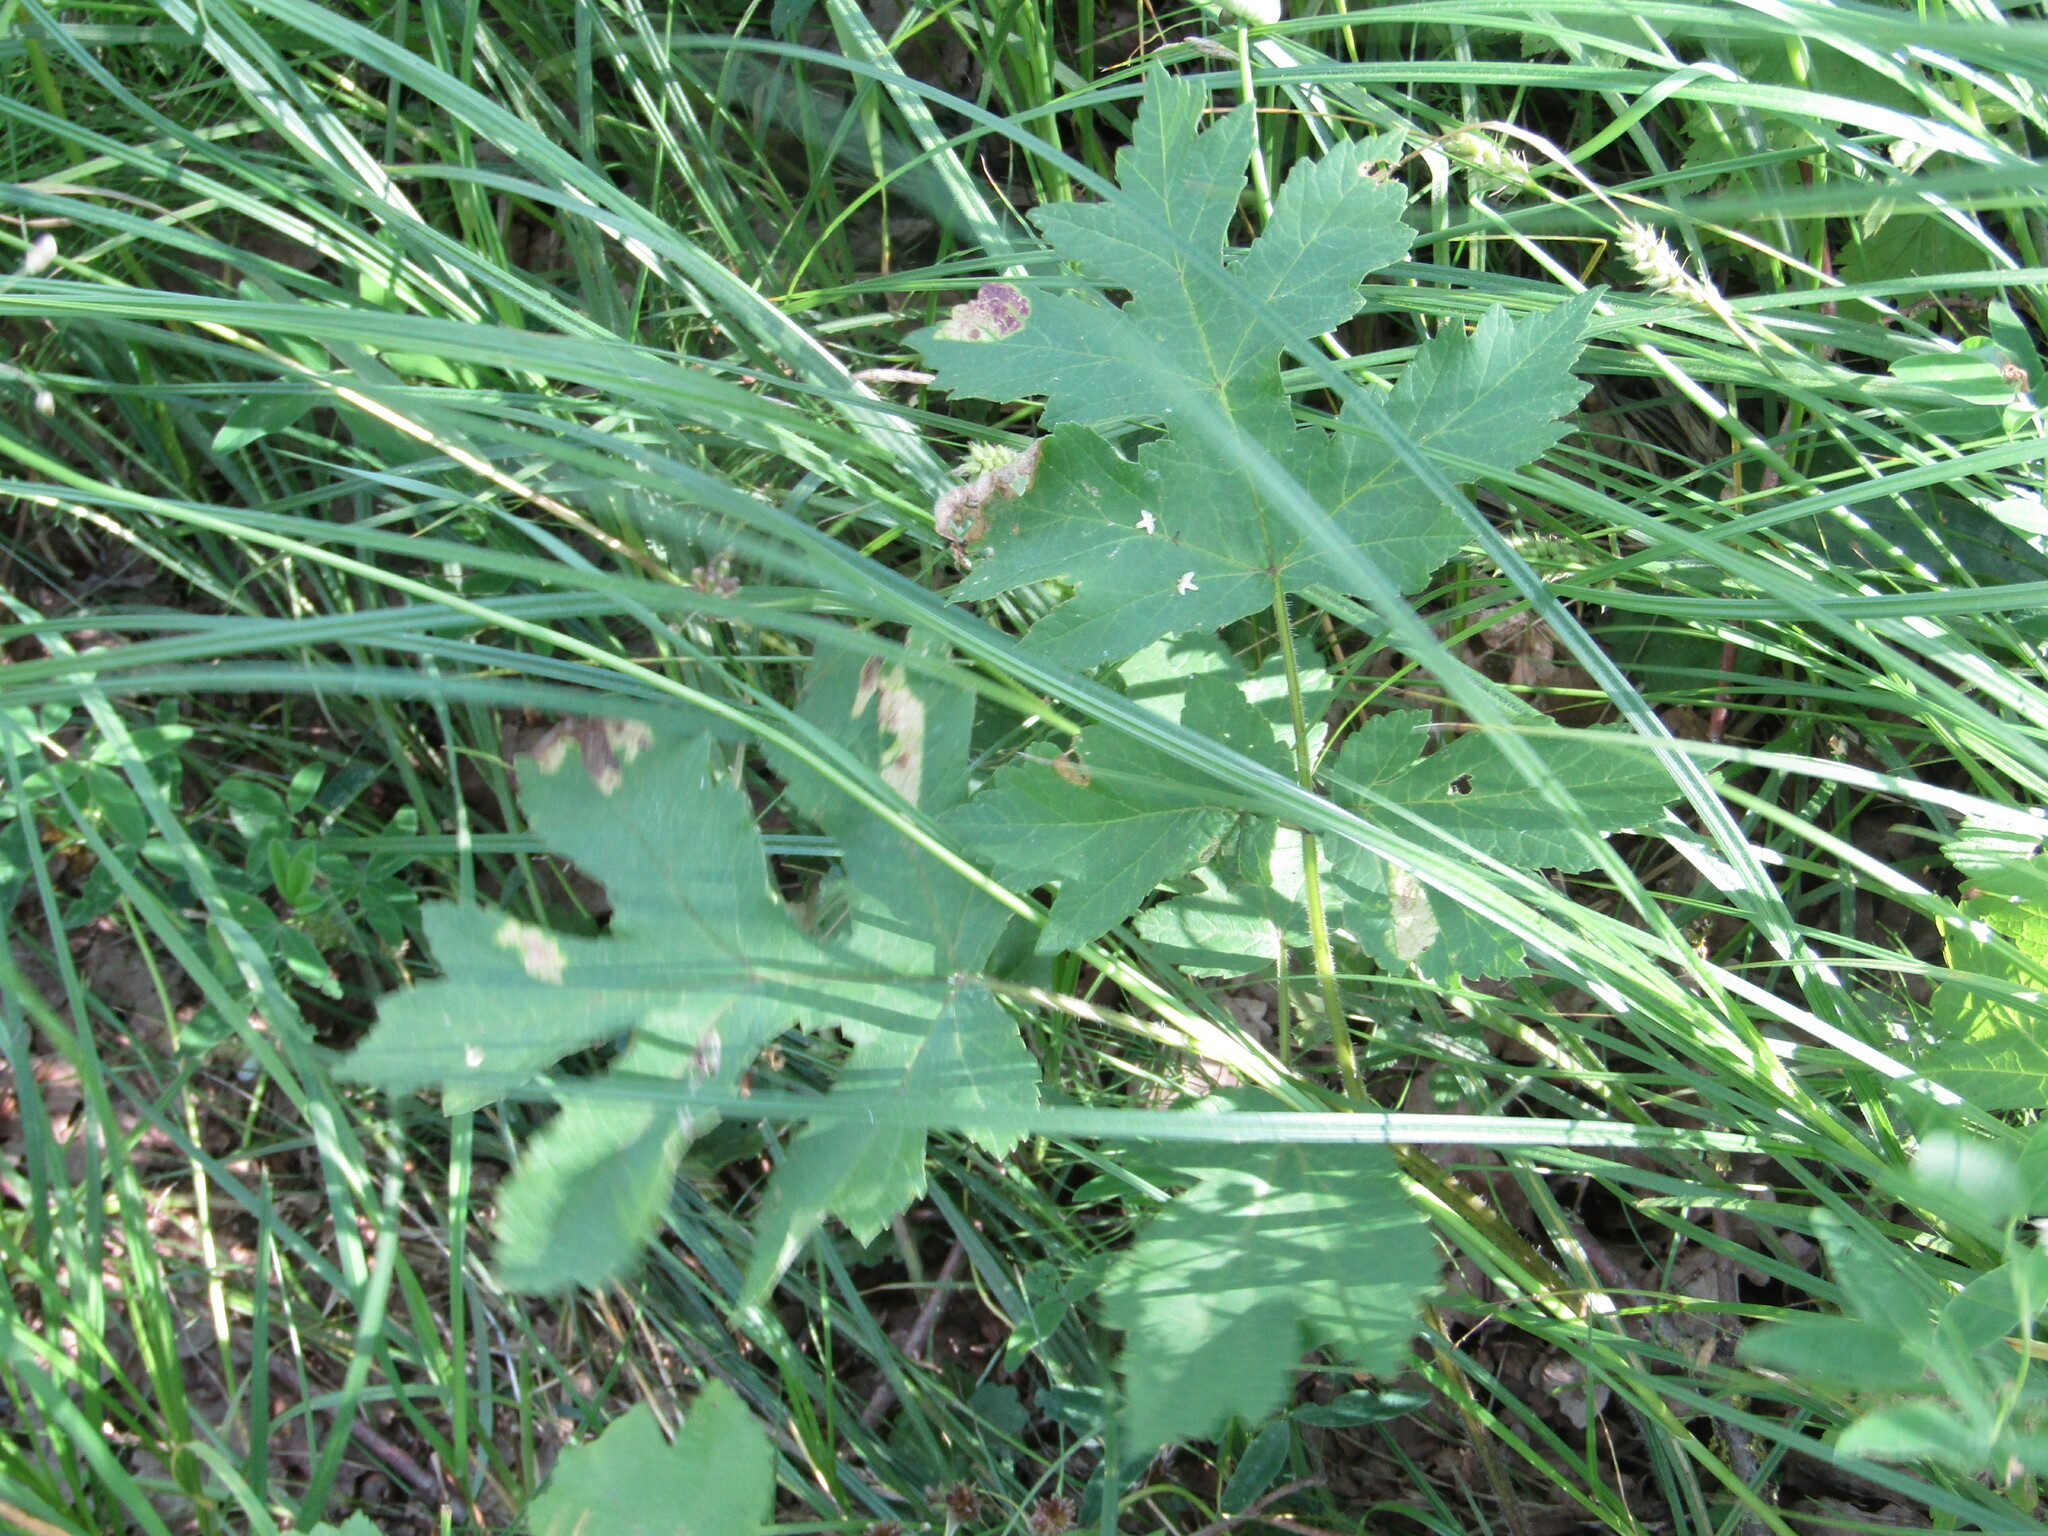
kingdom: Plantae
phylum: Tracheophyta
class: Magnoliopsida
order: Apiales
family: Apiaceae
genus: Heracleum
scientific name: Heracleum sphondylium
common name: Hogweed
